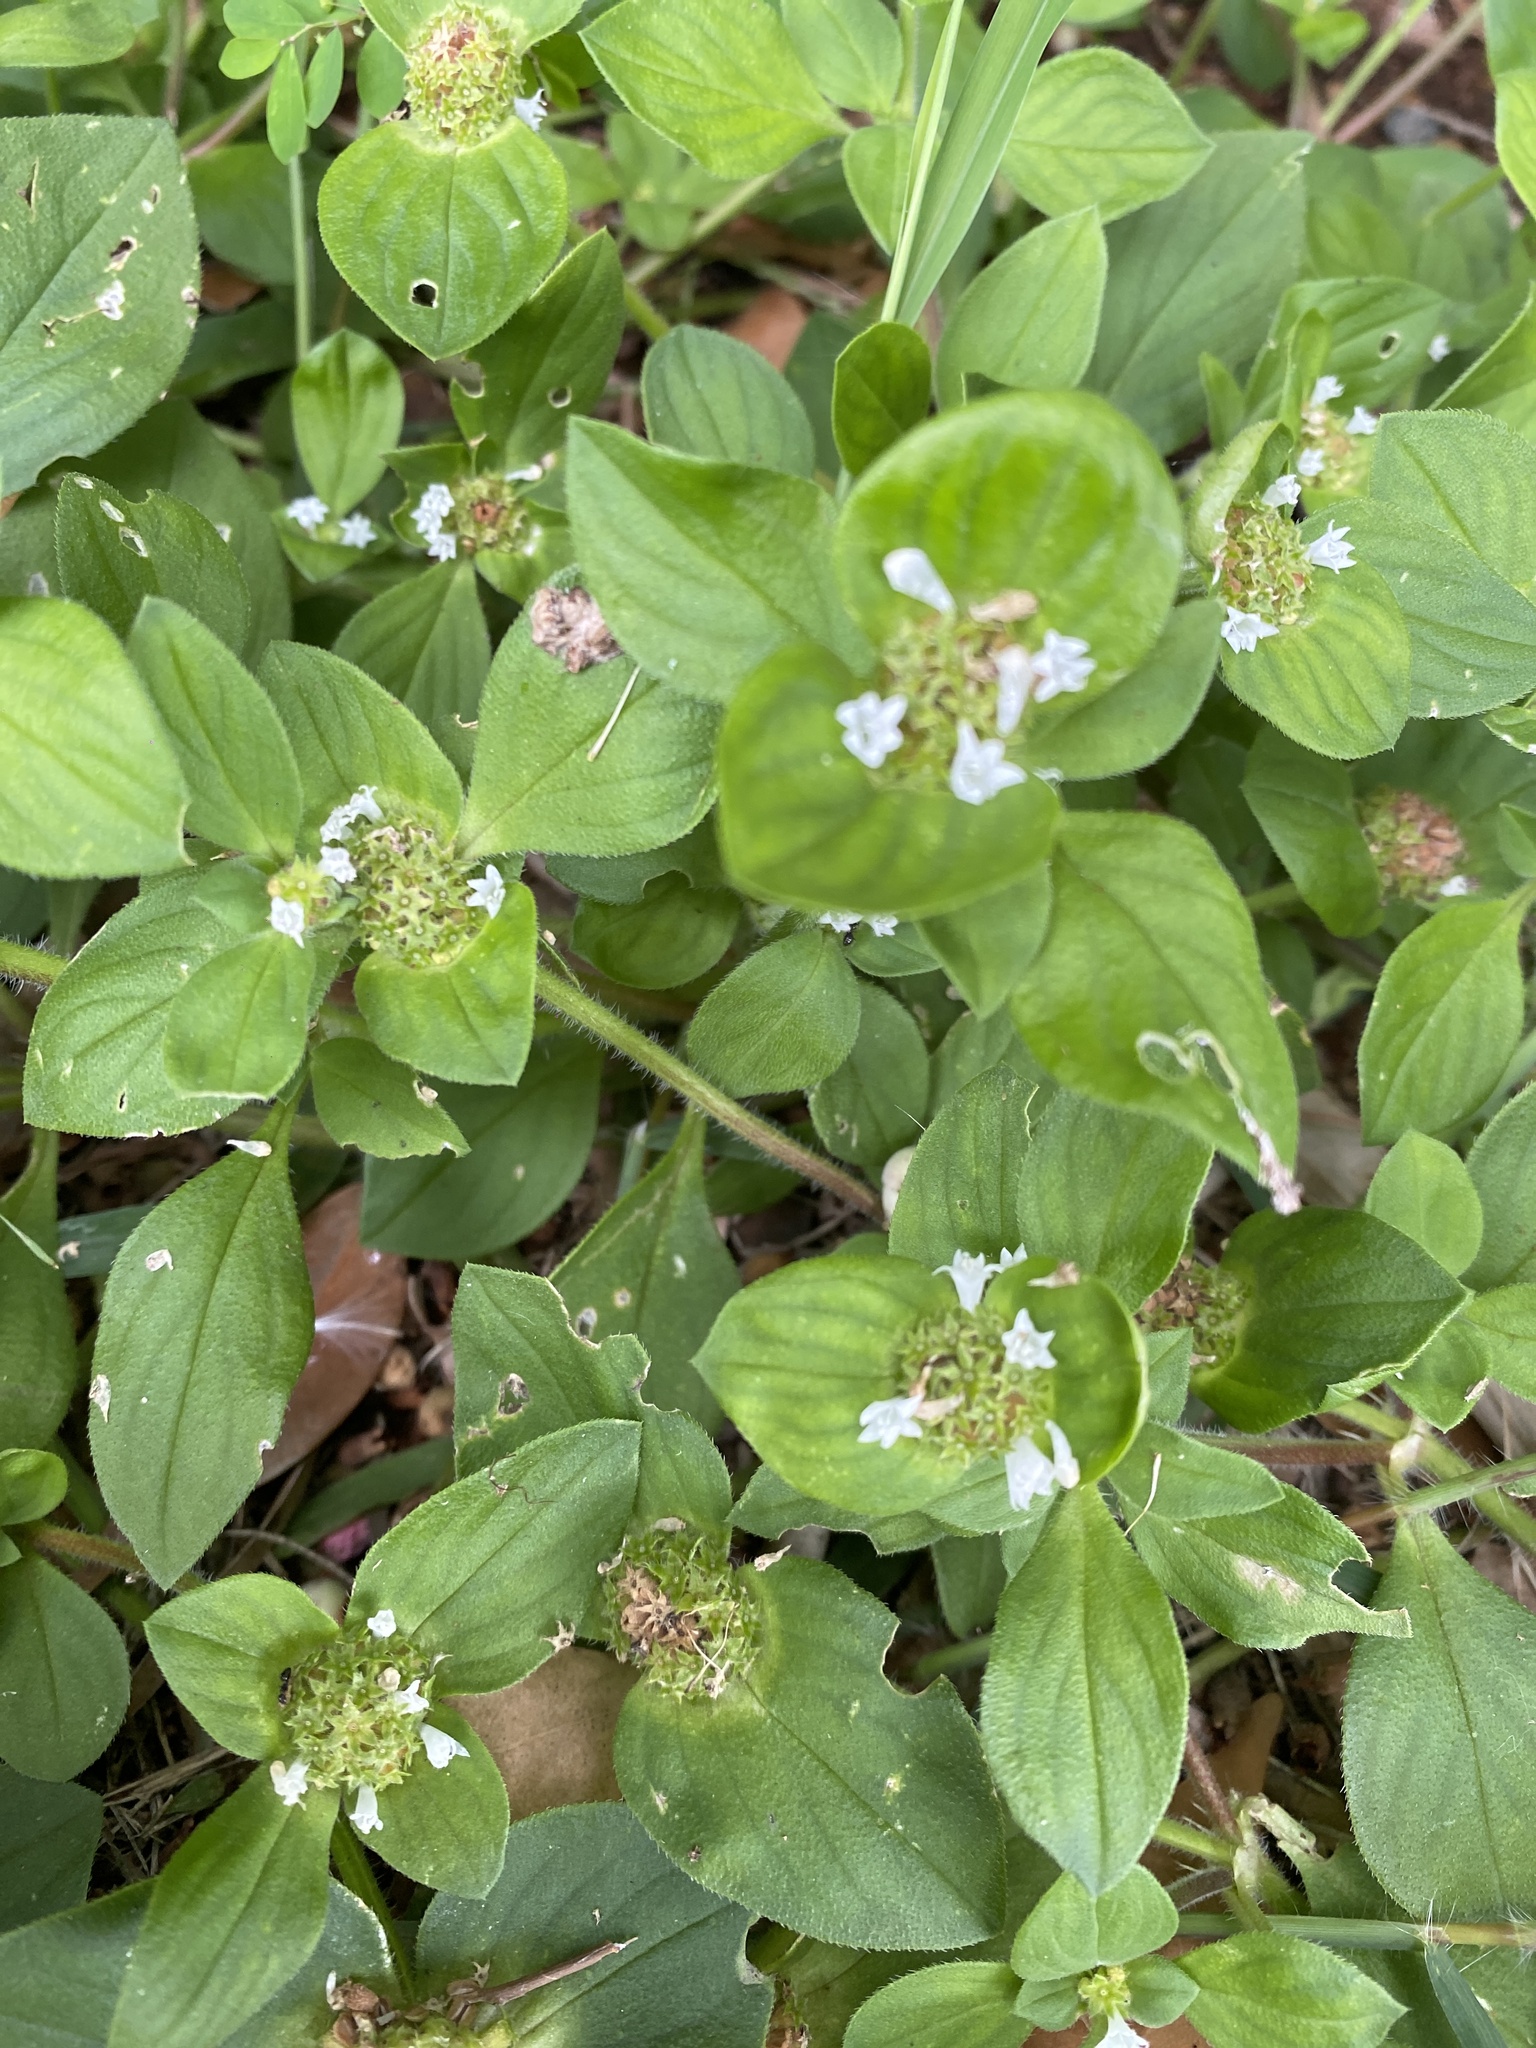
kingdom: Plantae
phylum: Tracheophyta
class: Magnoliopsida
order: Gentianales
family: Rubiaceae
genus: Richardia
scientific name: Richardia brasiliensis
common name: Tropical mexican clover
